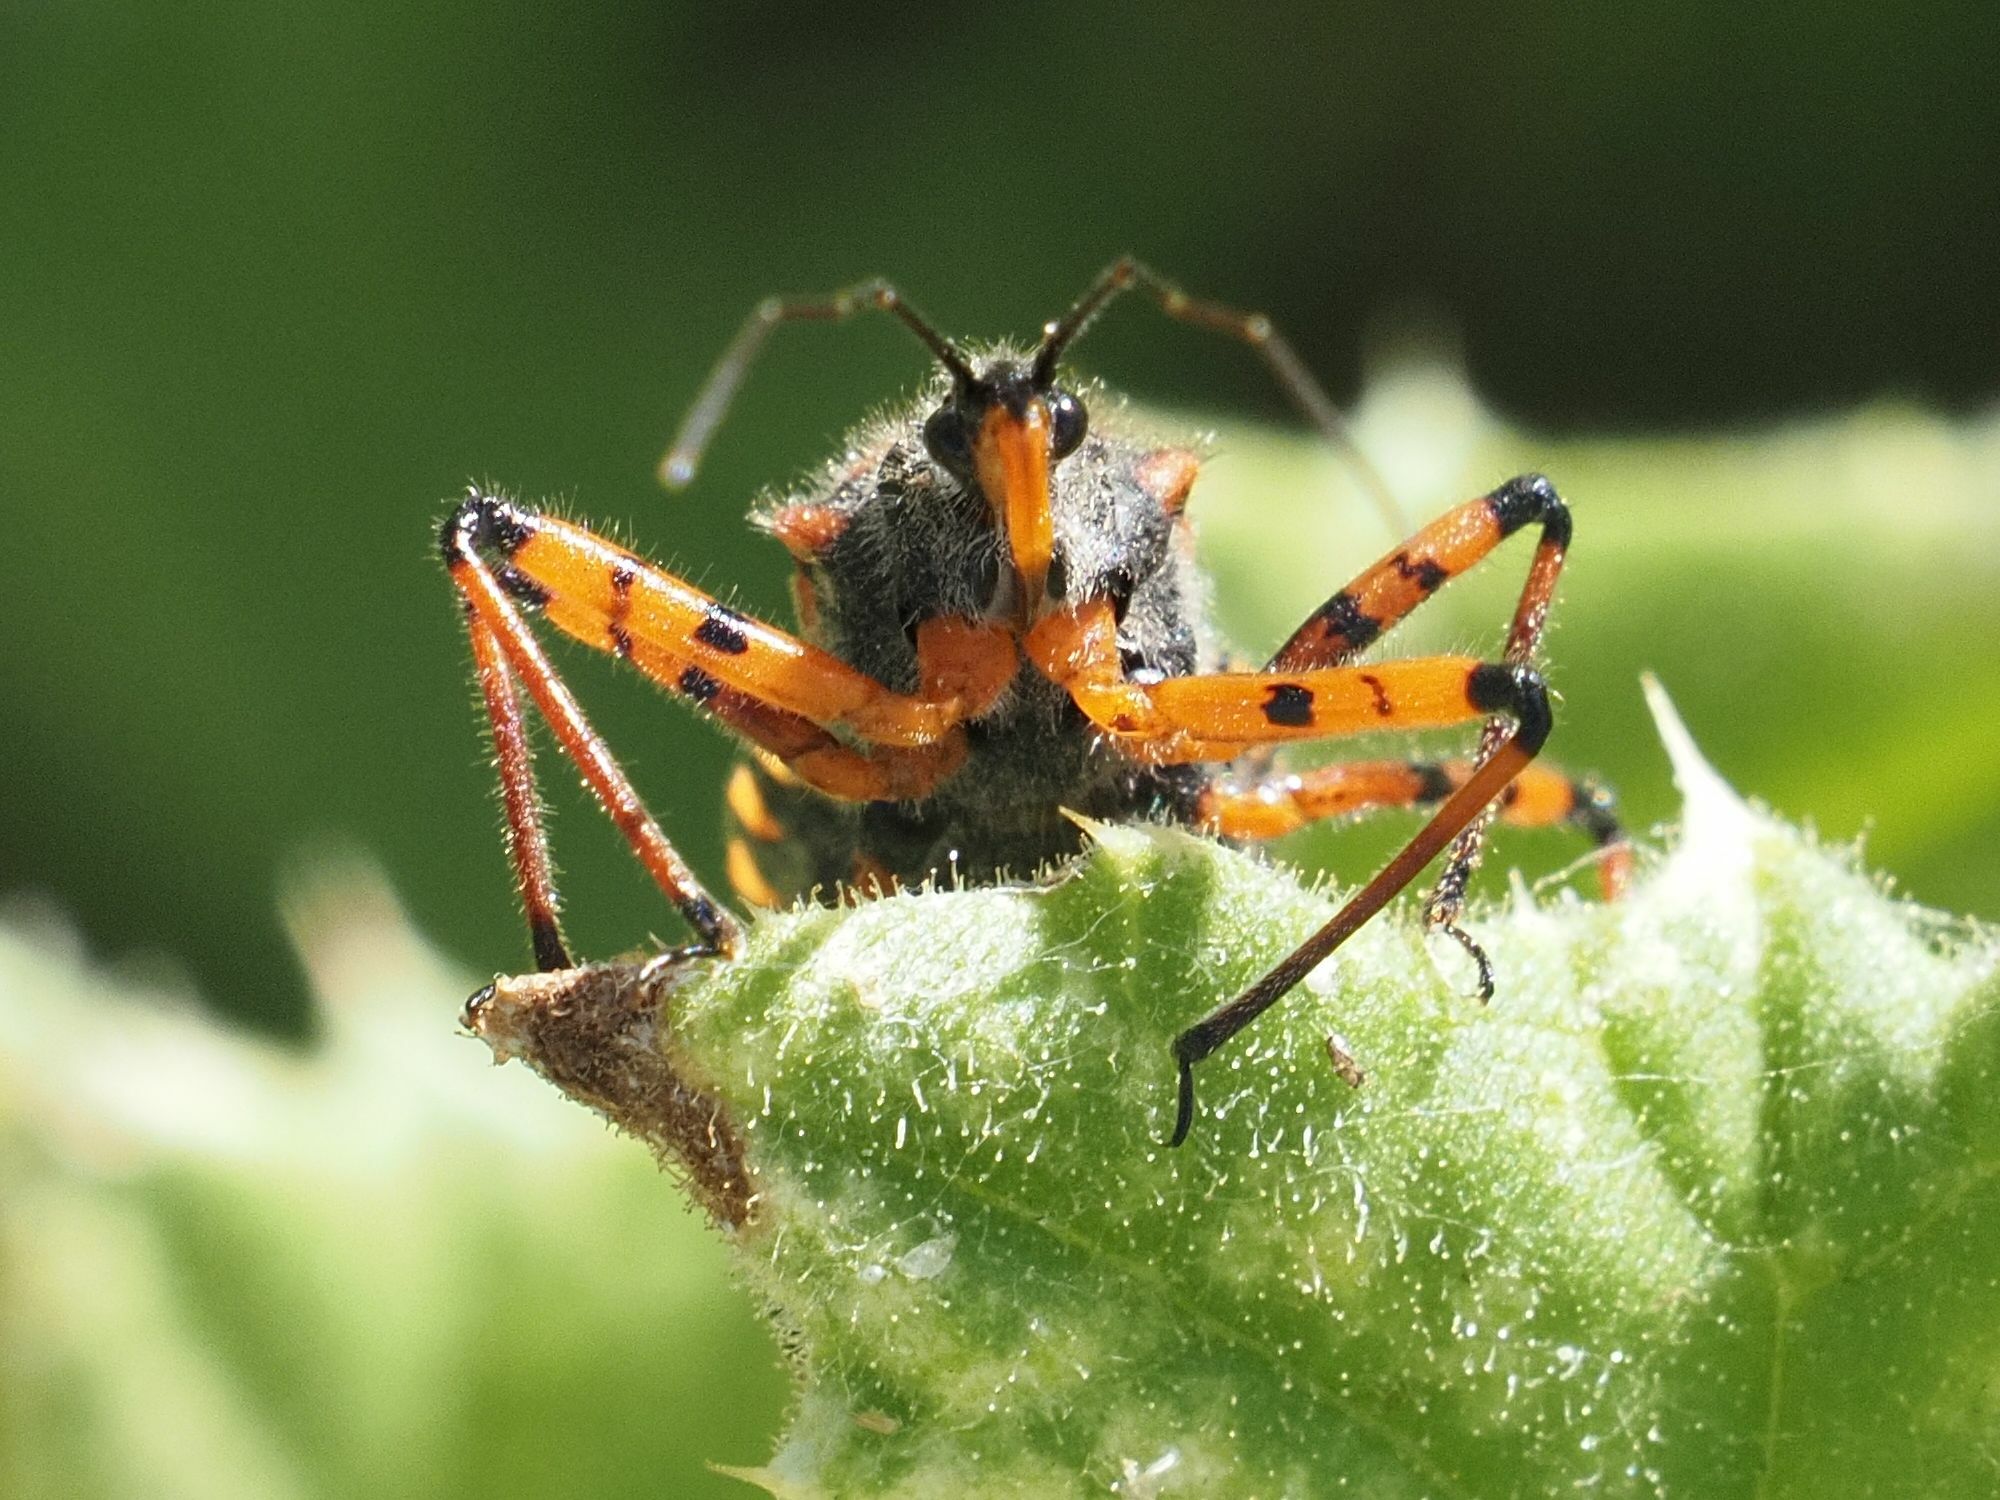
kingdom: Animalia
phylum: Arthropoda
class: Insecta
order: Hemiptera
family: Reduviidae
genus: Rhynocoris
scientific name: Rhynocoris iracundus
